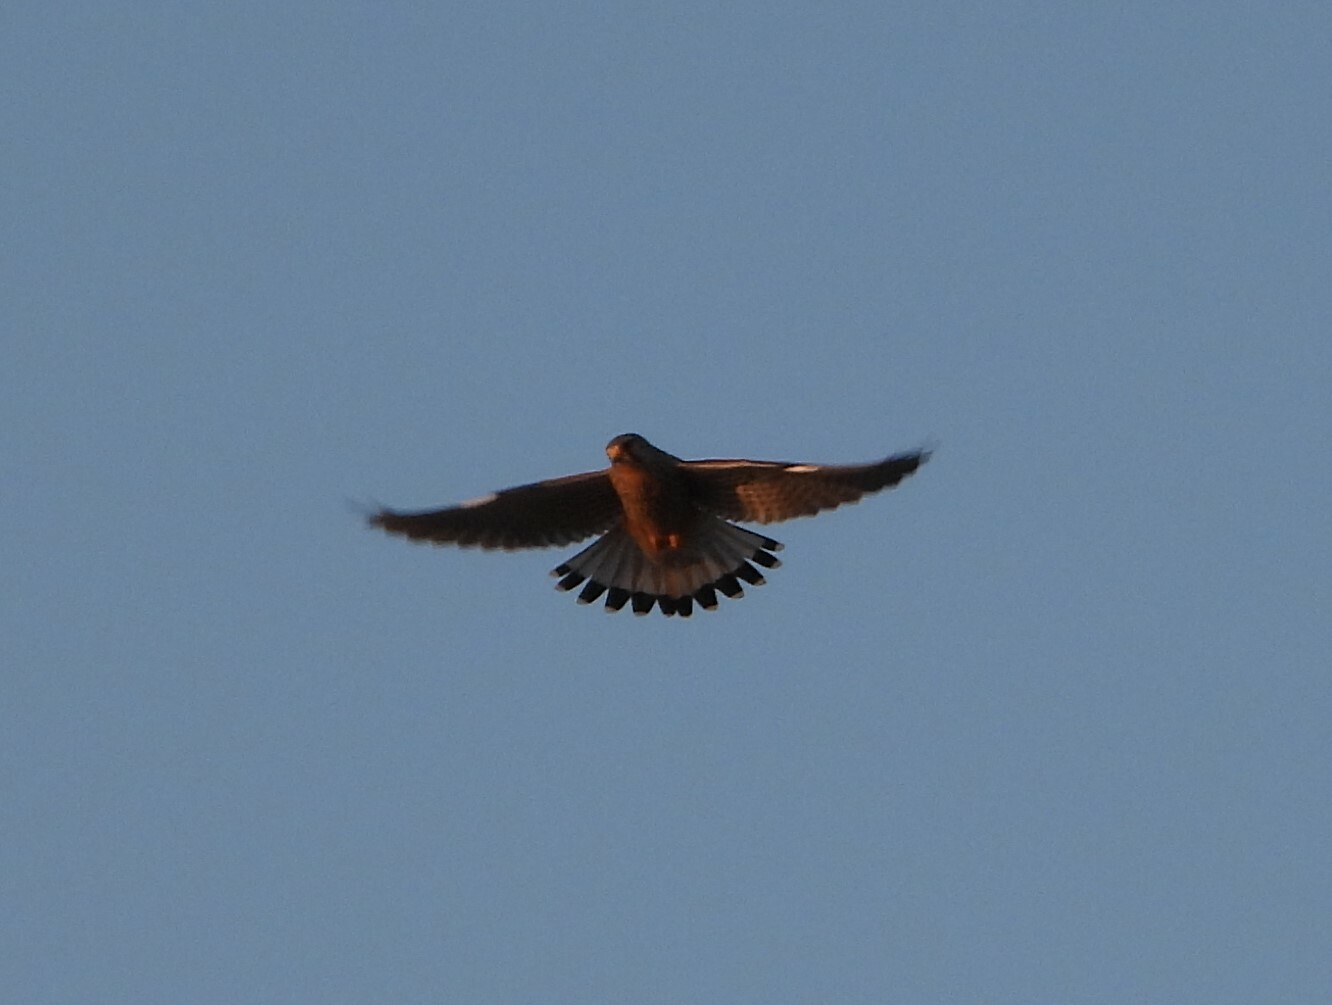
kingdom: Animalia
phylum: Chordata
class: Aves
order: Falconiformes
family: Falconidae
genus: Falco
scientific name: Falco tinnunculus
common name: Common kestrel
